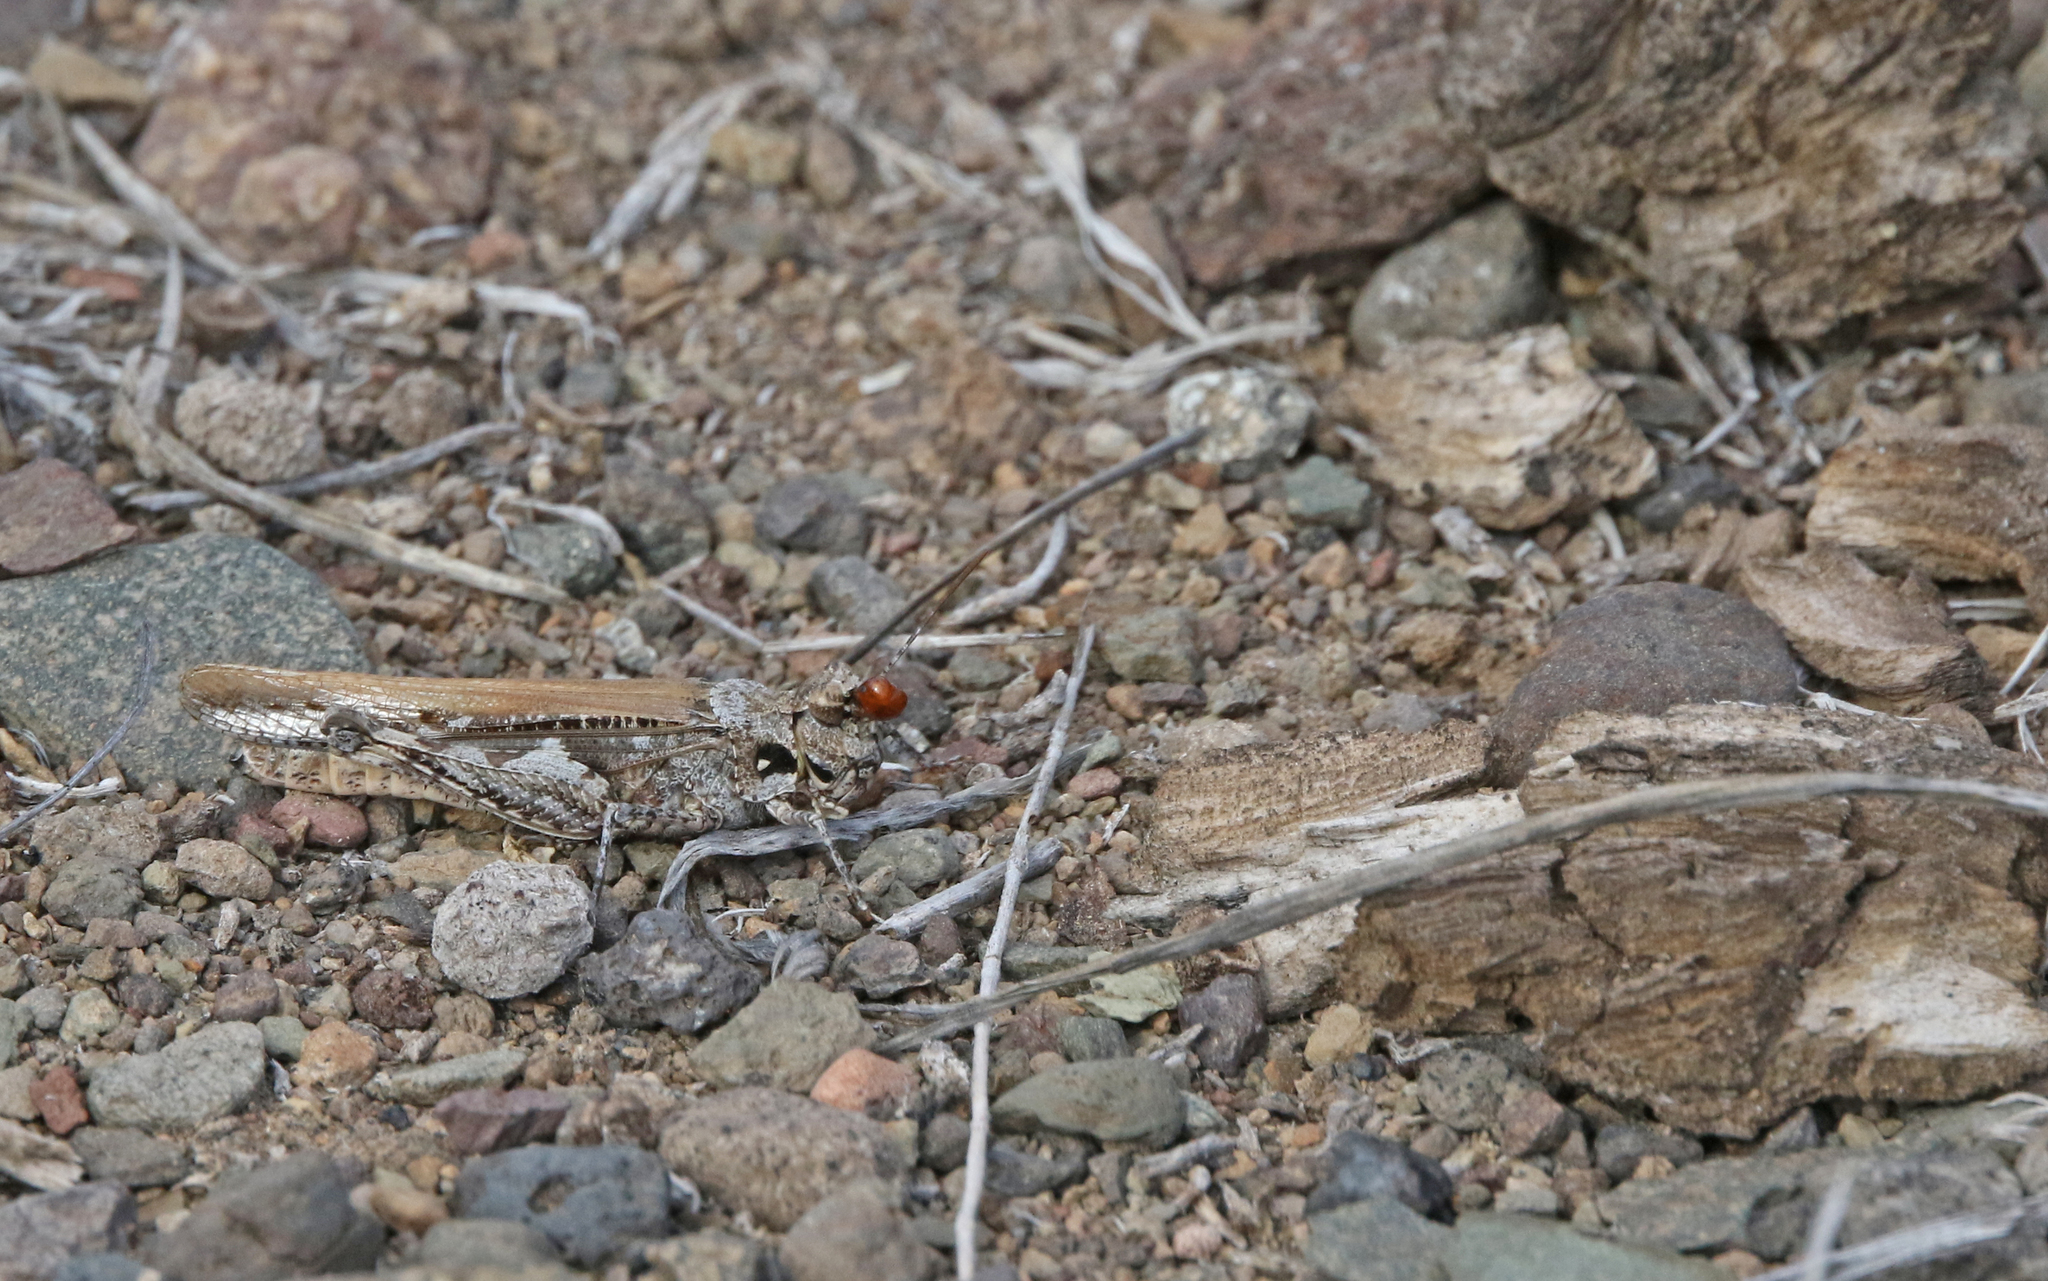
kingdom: Animalia
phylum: Arthropoda
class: Insecta
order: Orthoptera
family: Acrididae
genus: Acrotylus
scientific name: Acrotylus insubricus
